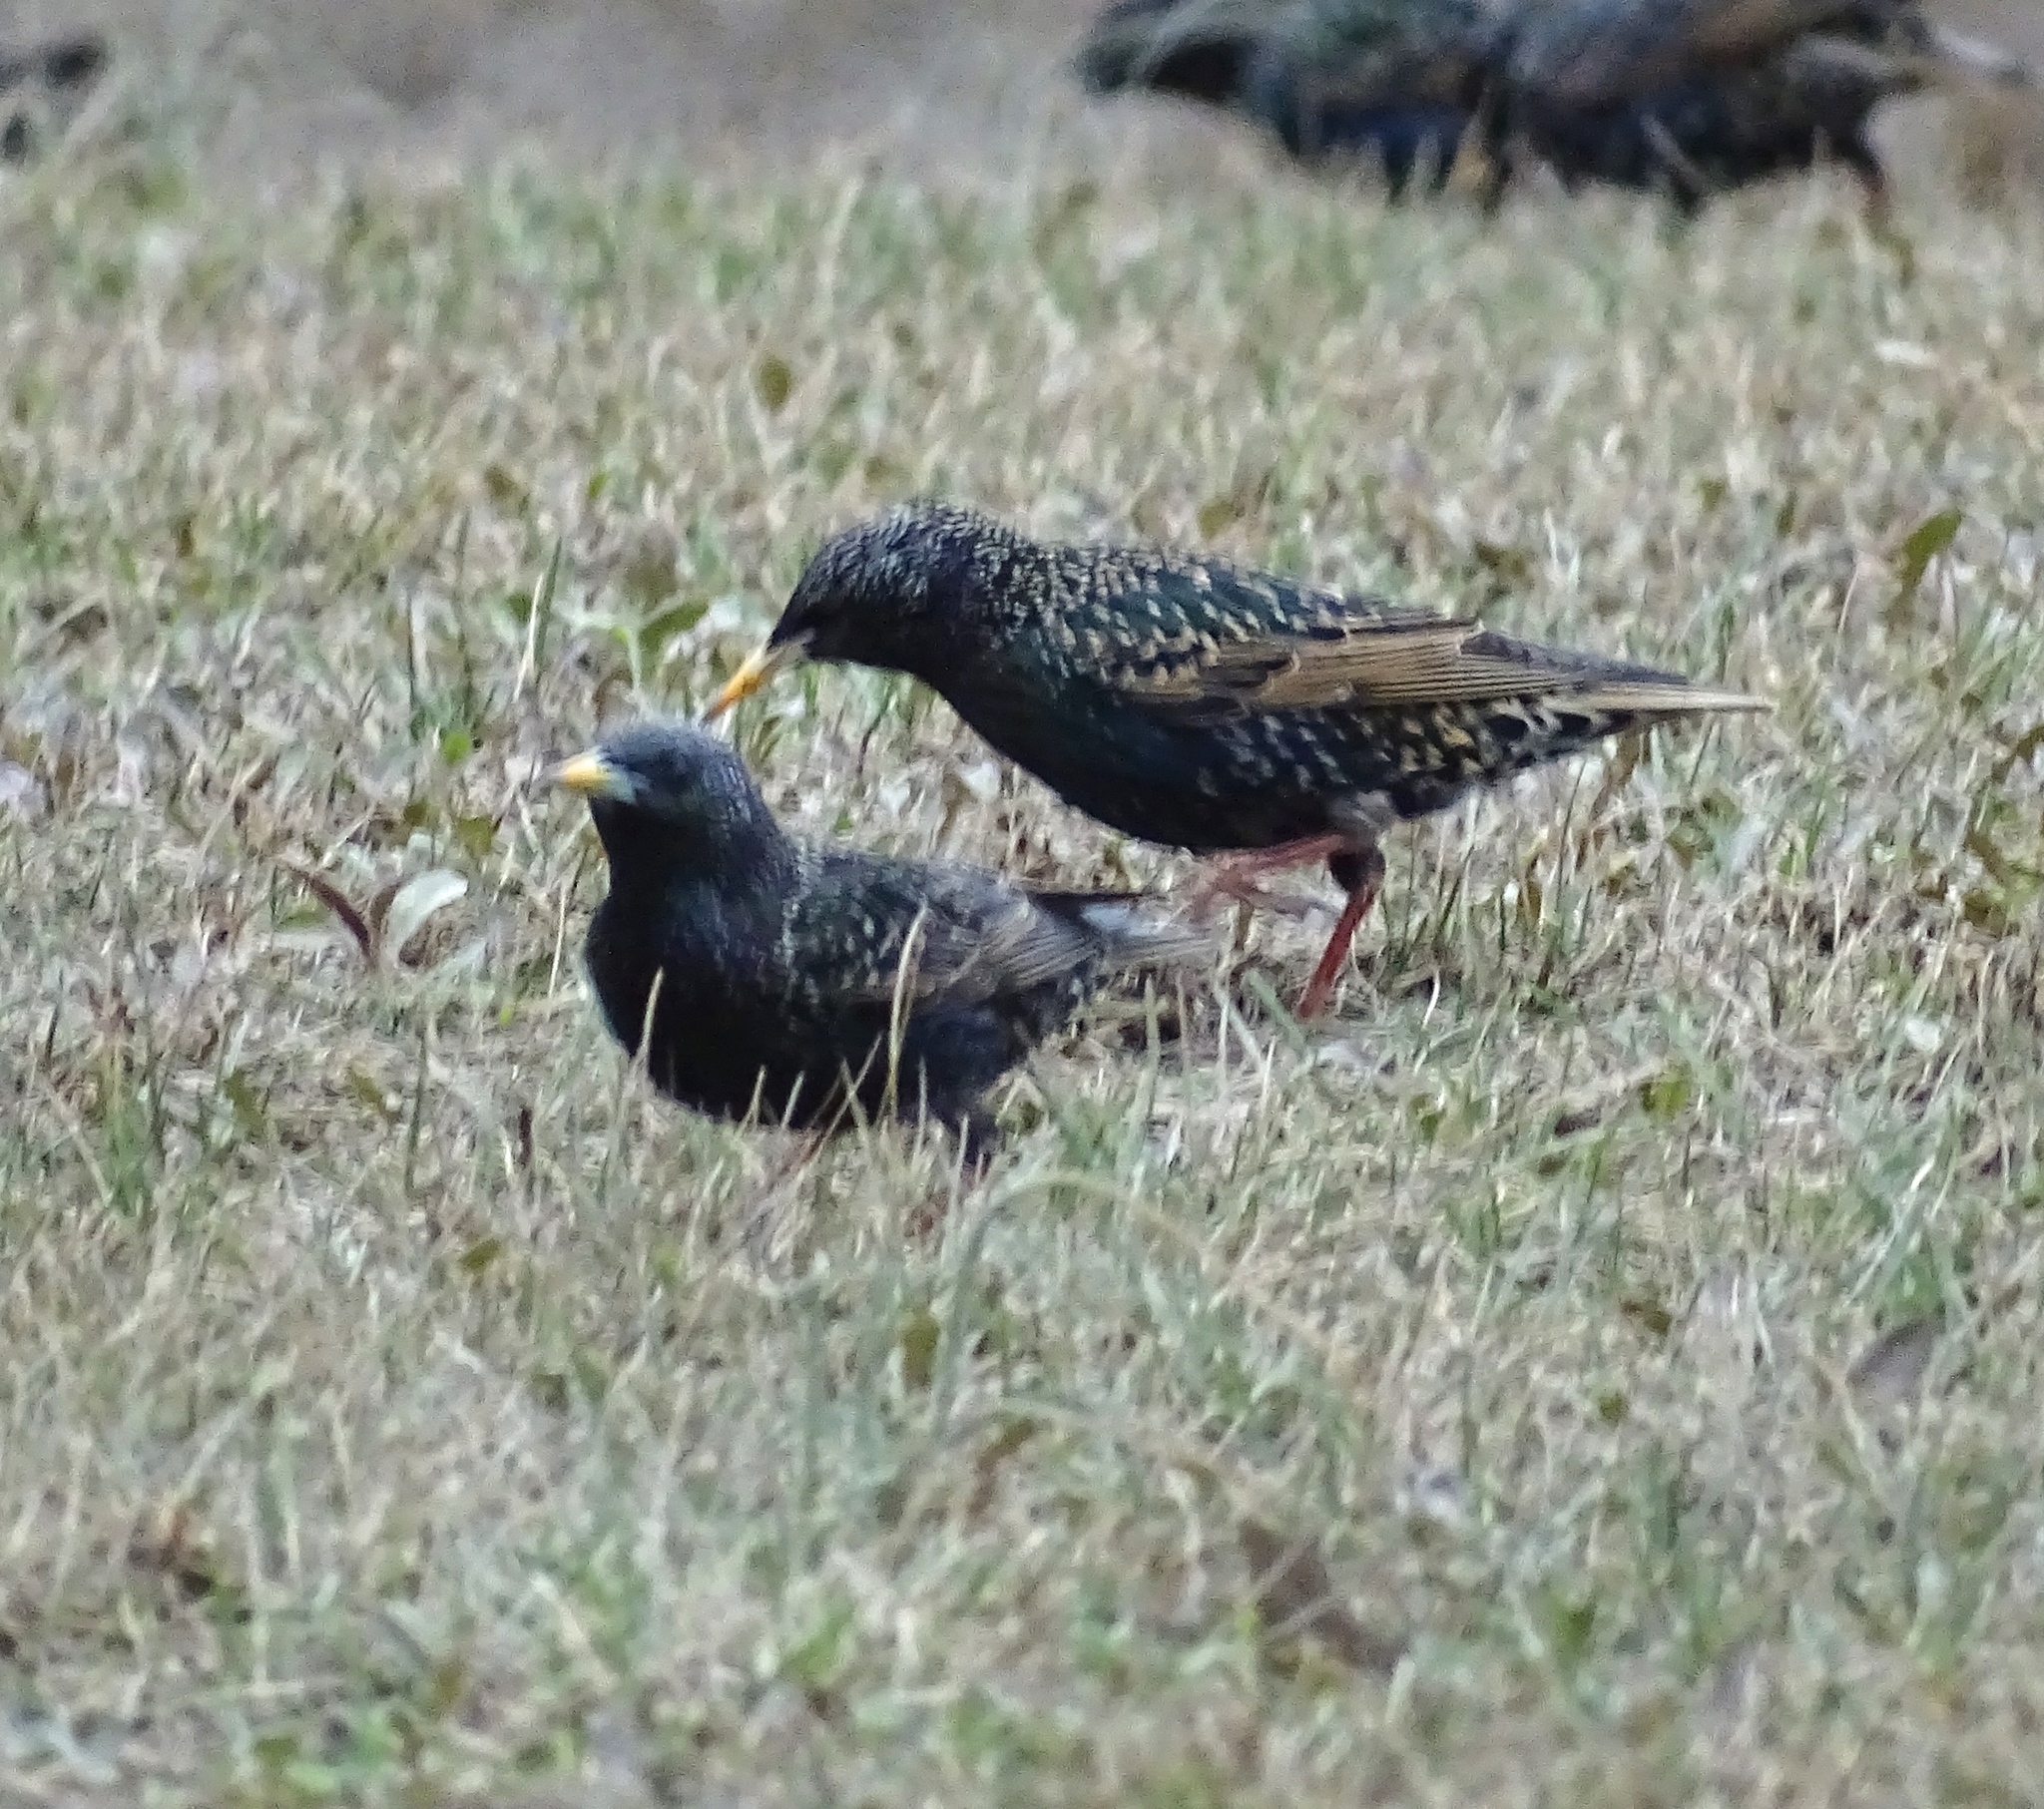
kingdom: Animalia
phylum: Chordata
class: Aves
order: Passeriformes
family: Sturnidae
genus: Sturnus
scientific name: Sturnus vulgaris
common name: Common starling
